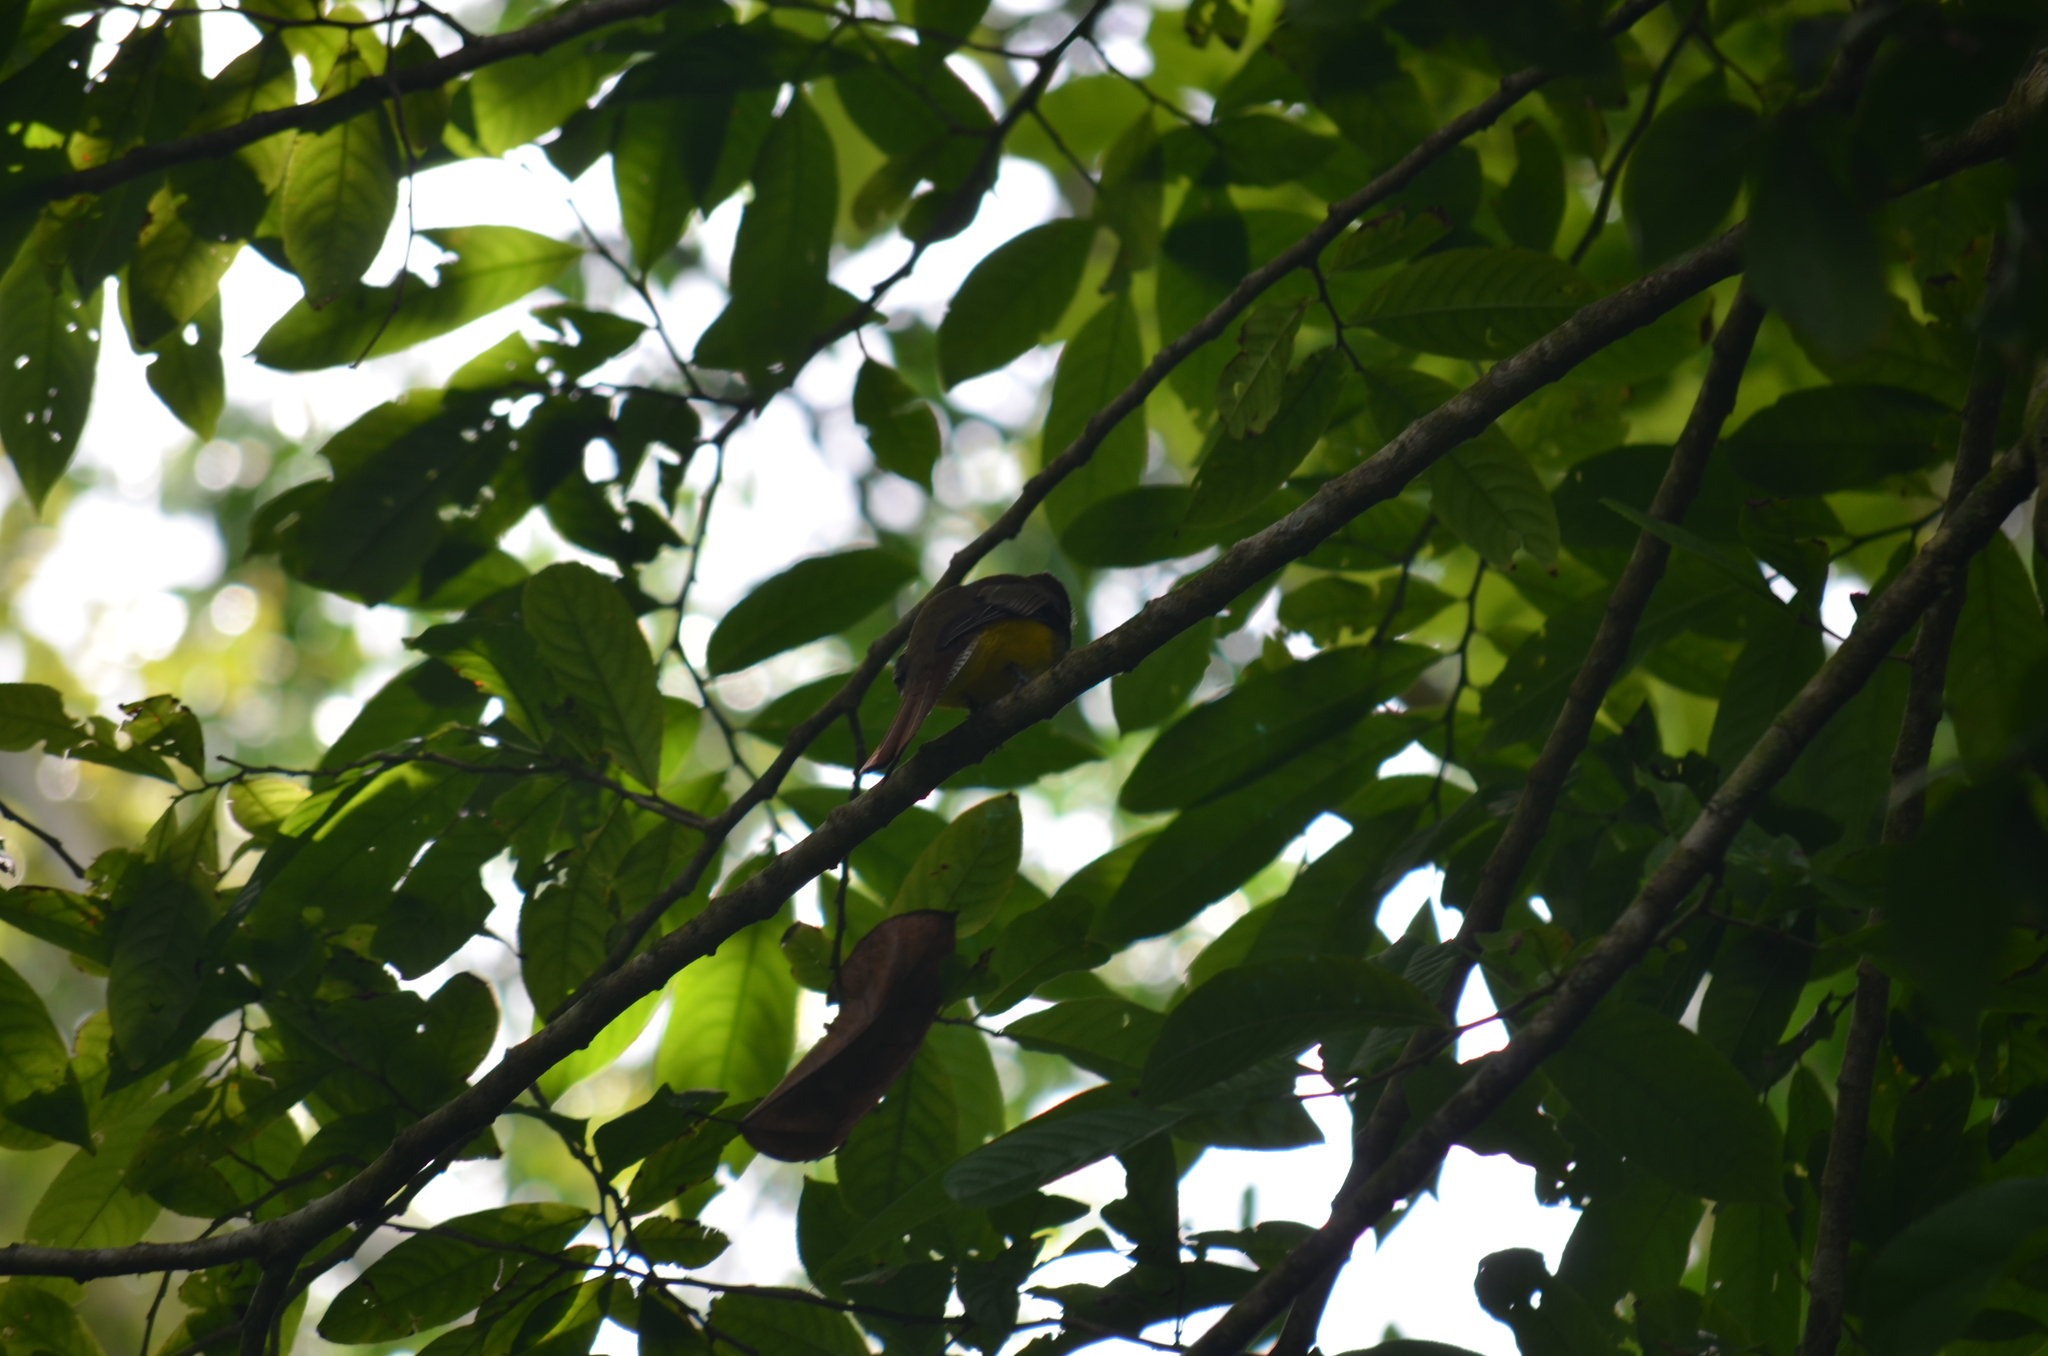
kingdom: Animalia
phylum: Chordata
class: Aves
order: Trogoniformes
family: Trogonidae
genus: Trogon
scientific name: Trogon rufus
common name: Black-throated trogon
